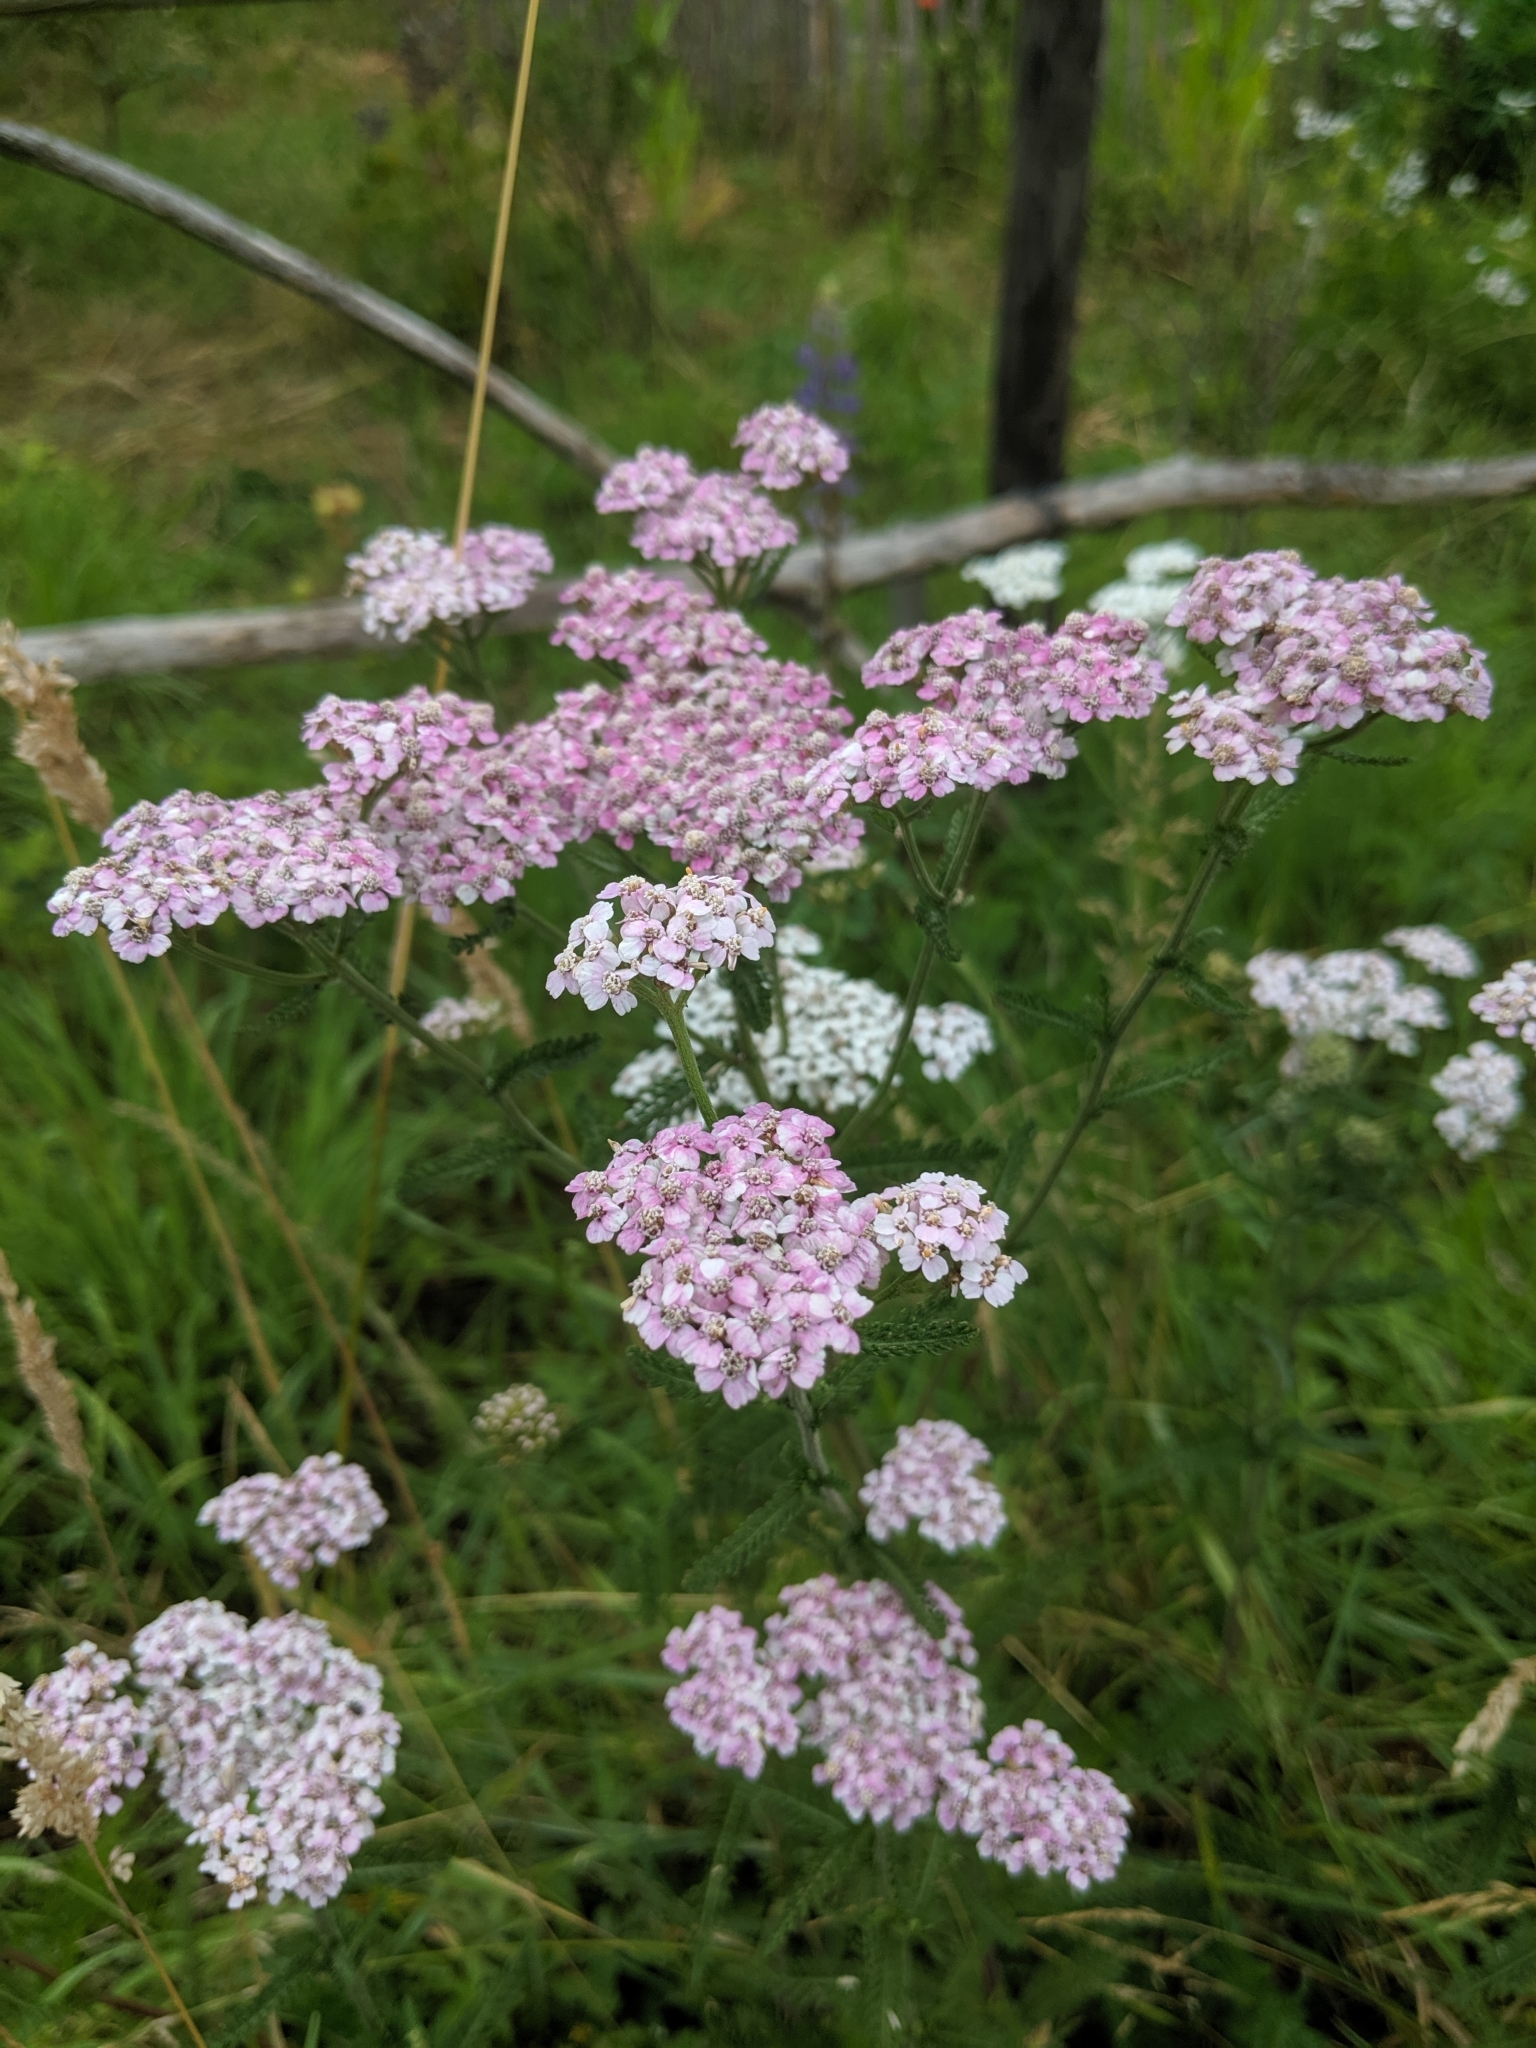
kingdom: Plantae
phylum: Tracheophyta
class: Magnoliopsida
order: Asterales
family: Asteraceae
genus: Achillea
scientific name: Achillea millefolium
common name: Yarrow
